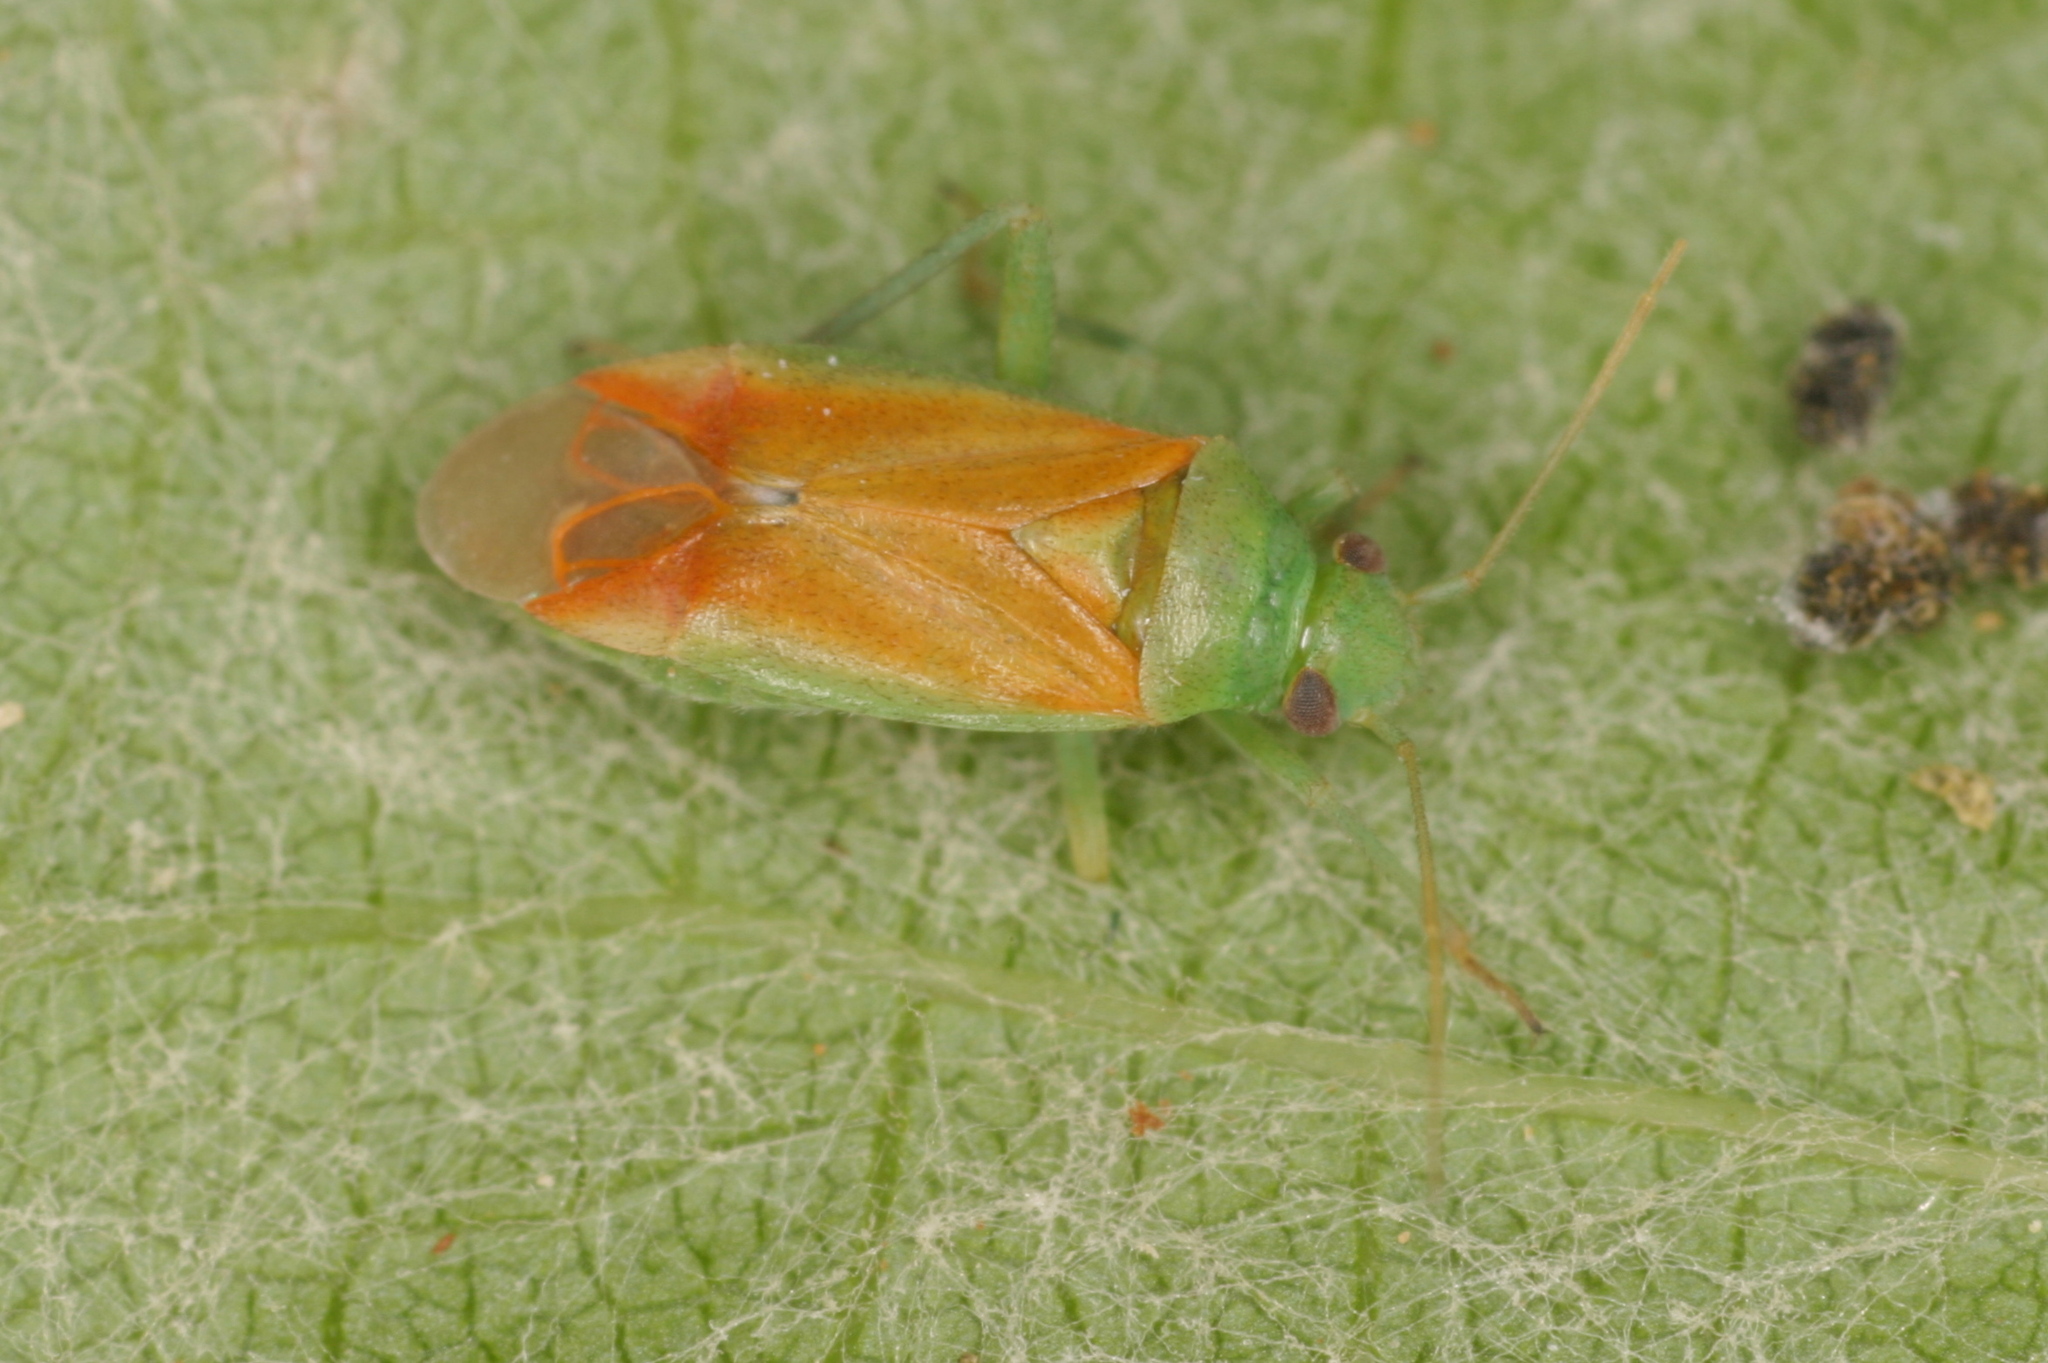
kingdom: Animalia
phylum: Arthropoda
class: Insecta
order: Hemiptera
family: Miridae
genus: Dichrooscytus
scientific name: Dichrooscytus intermedius
